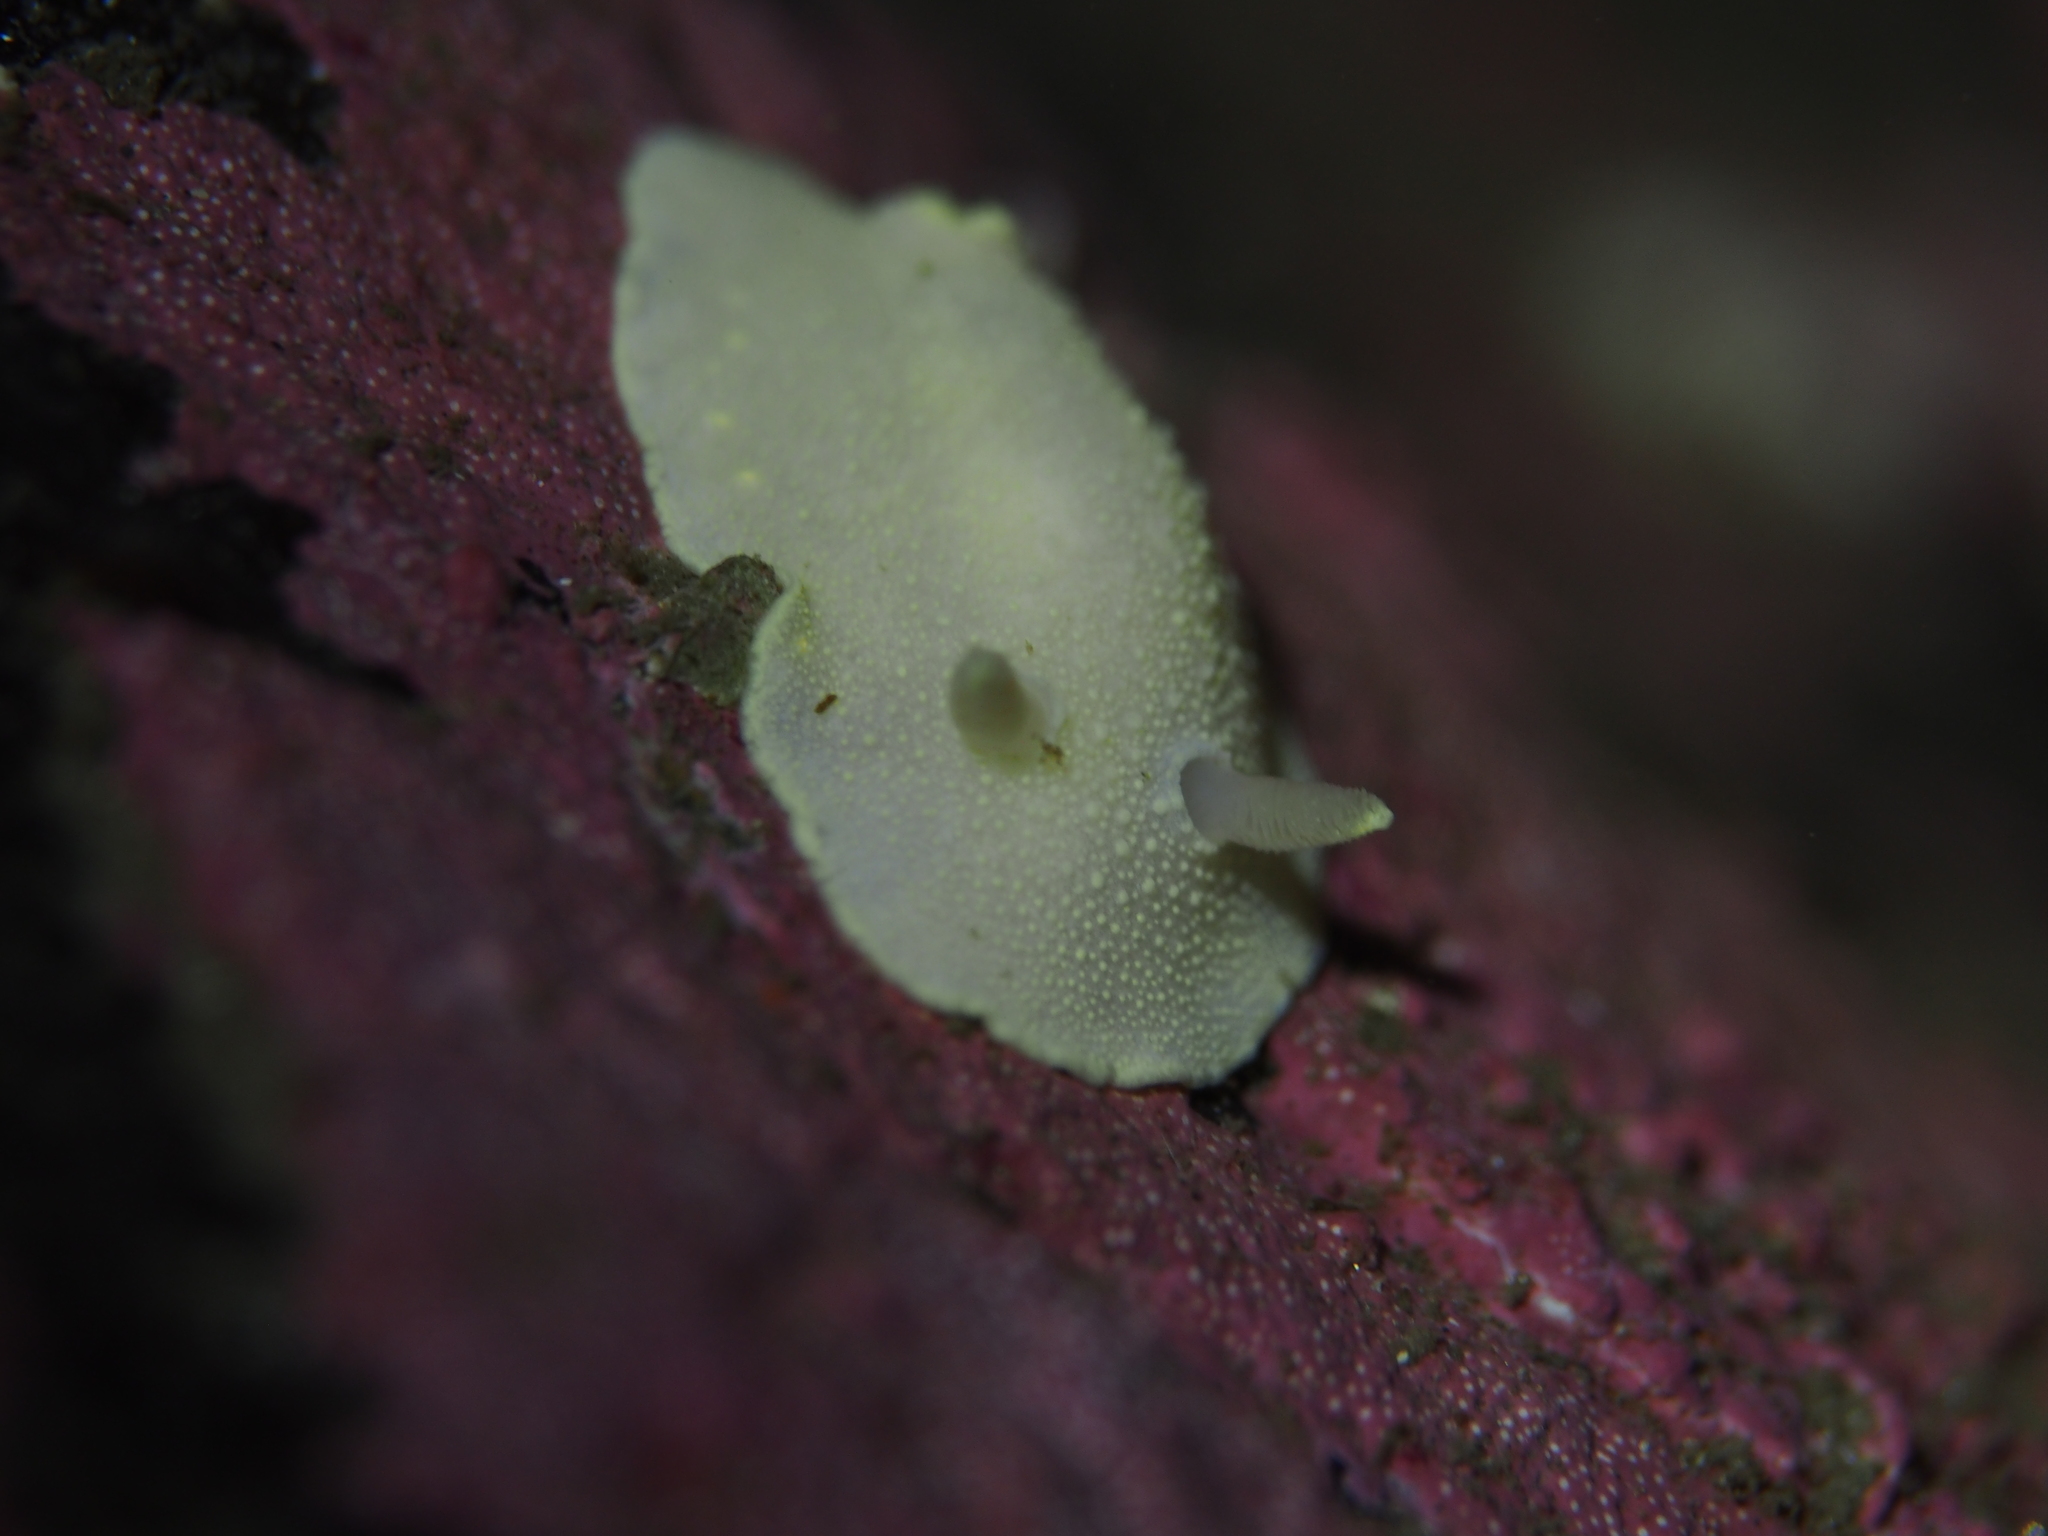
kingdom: Animalia
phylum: Mollusca
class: Gastropoda
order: Nudibranchia
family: Cadlinidae
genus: Cadlina
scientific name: Cadlina laevis
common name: White atlantic cadlina
